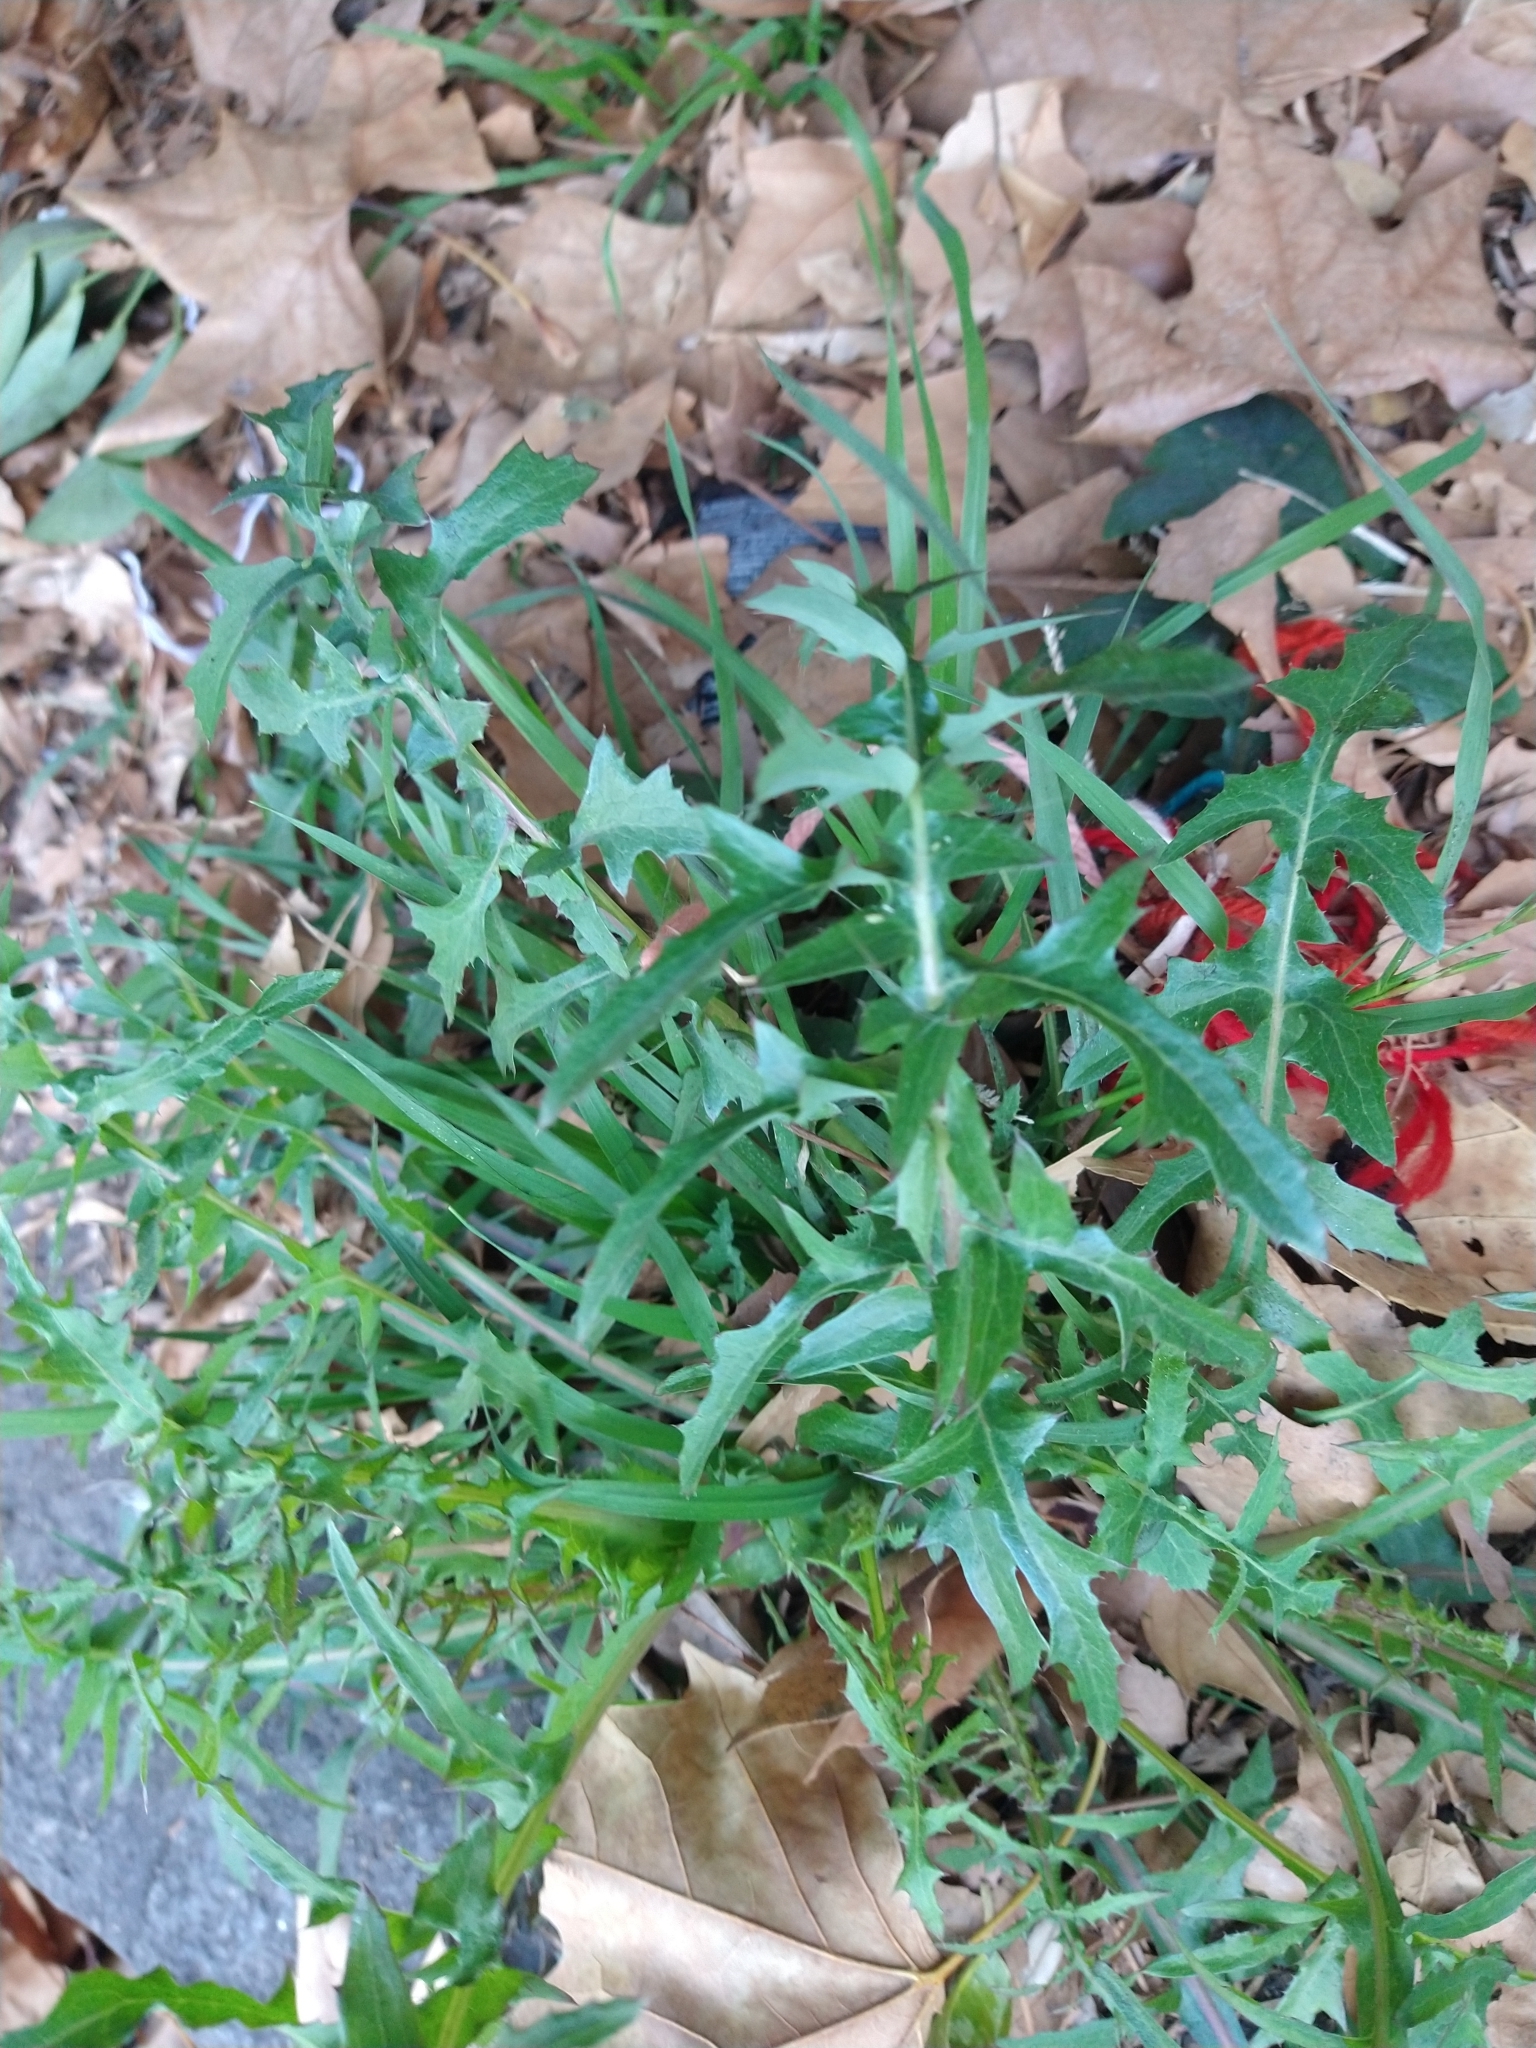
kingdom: Plantae
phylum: Tracheophyta
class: Magnoliopsida
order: Asterales
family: Asteraceae
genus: Sonchus
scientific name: Sonchus oleraceus
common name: Common sowthistle
